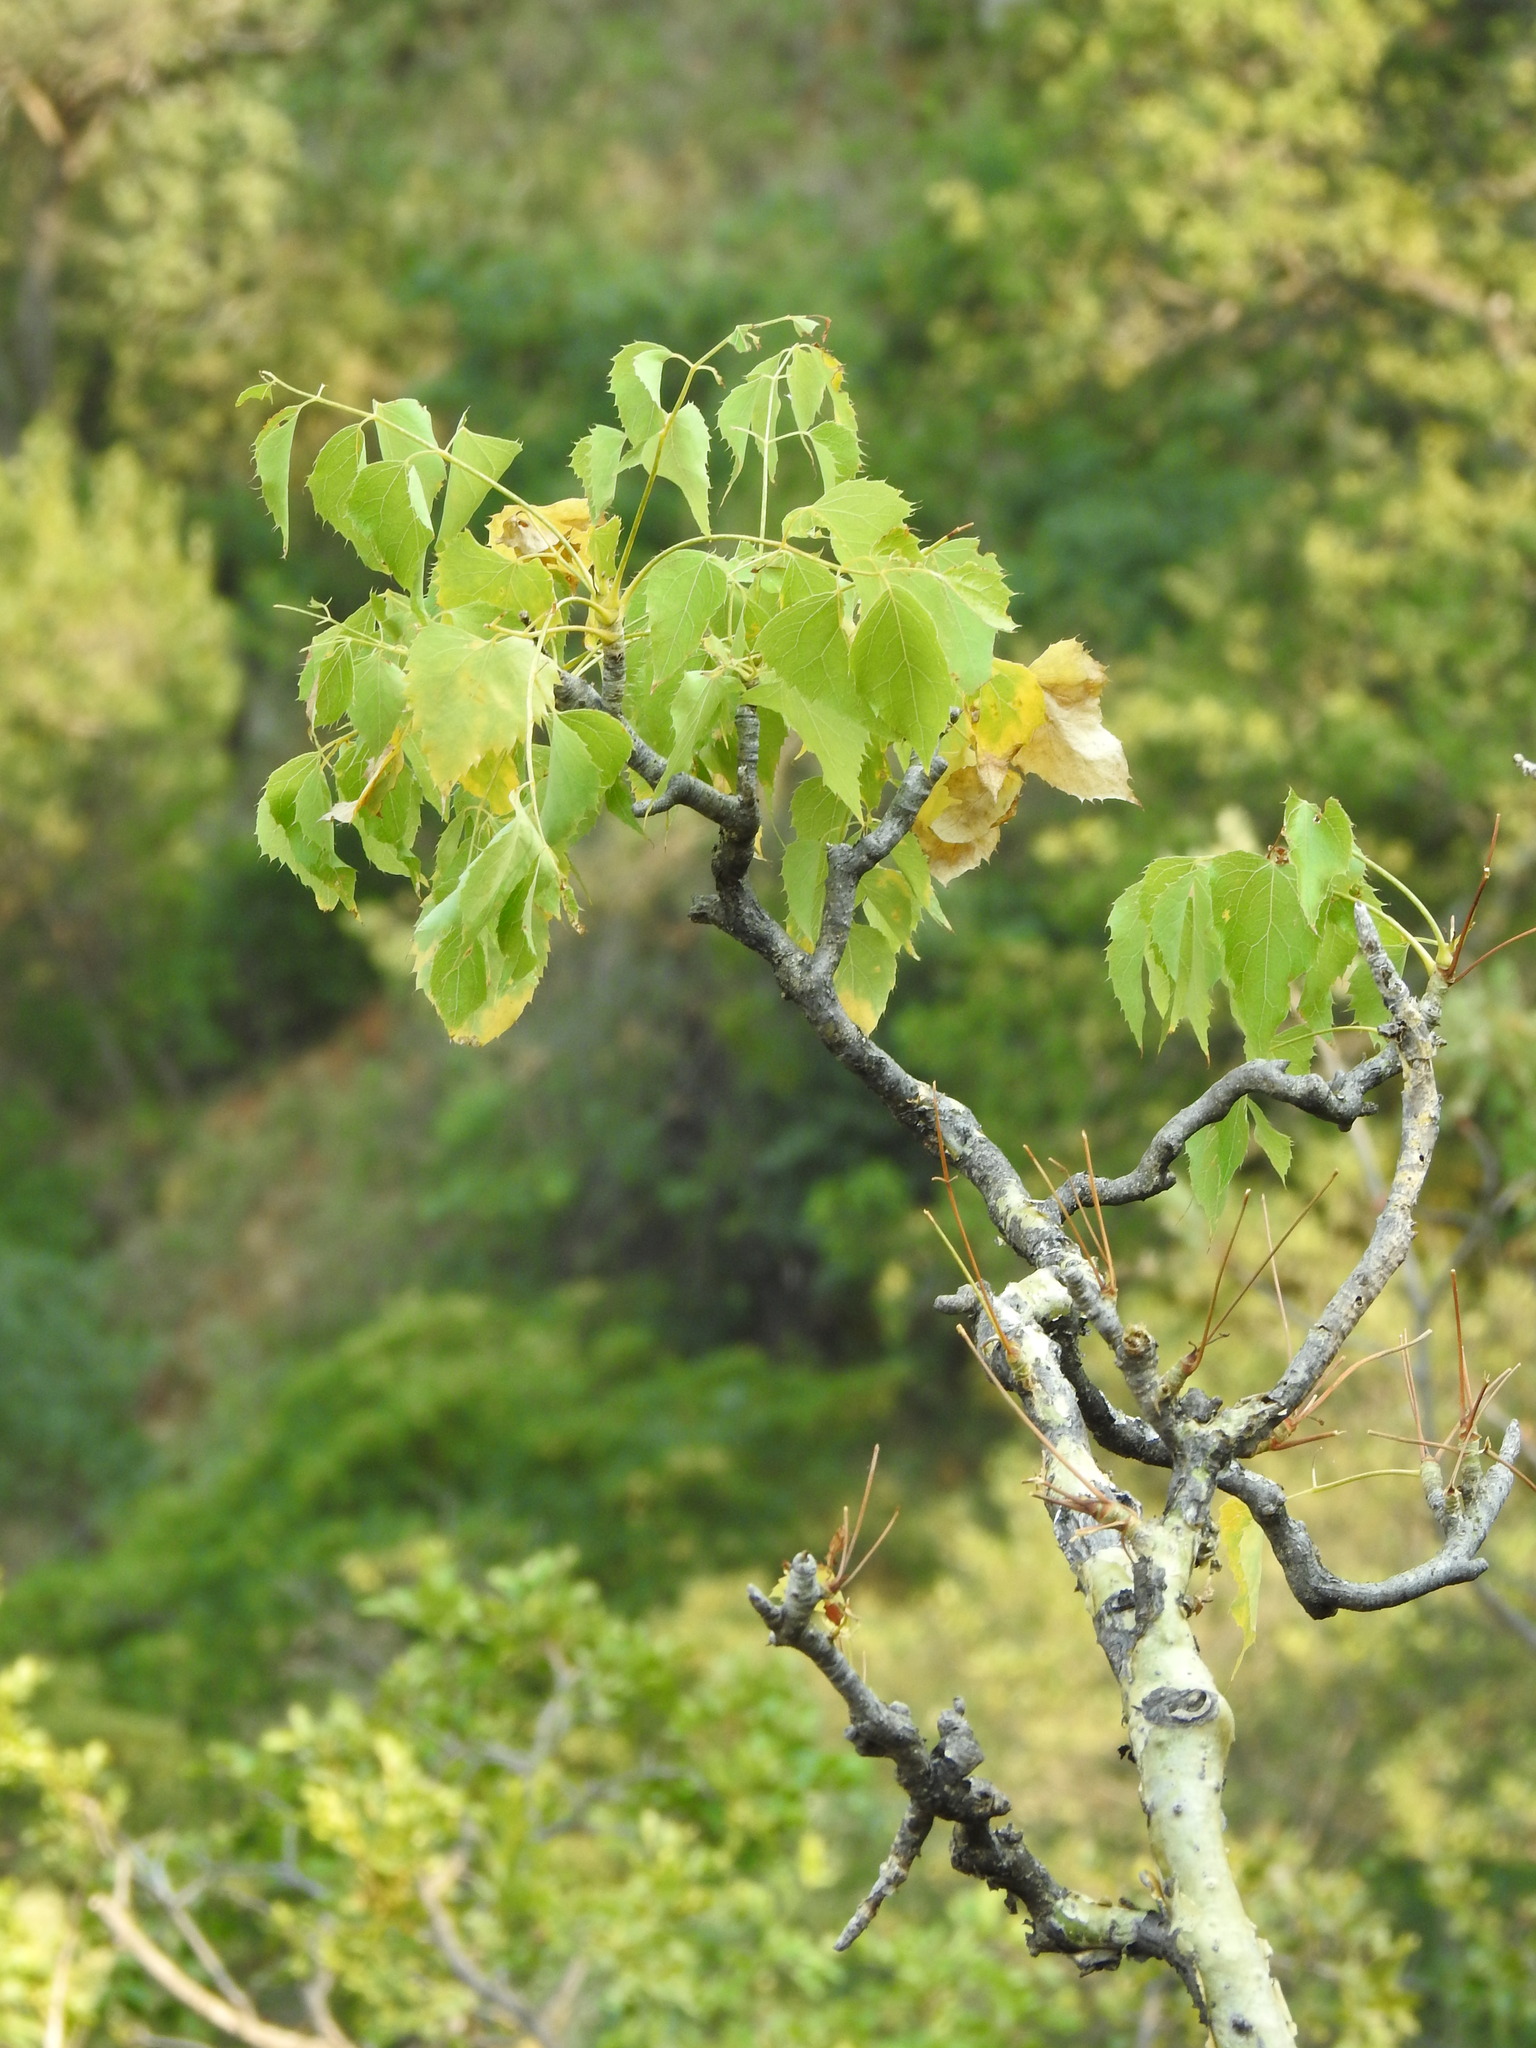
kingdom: Plantae
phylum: Tracheophyta
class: Magnoliopsida
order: Apiales
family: Apiaceae
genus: Steganotaenia
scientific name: Steganotaenia araliacea
